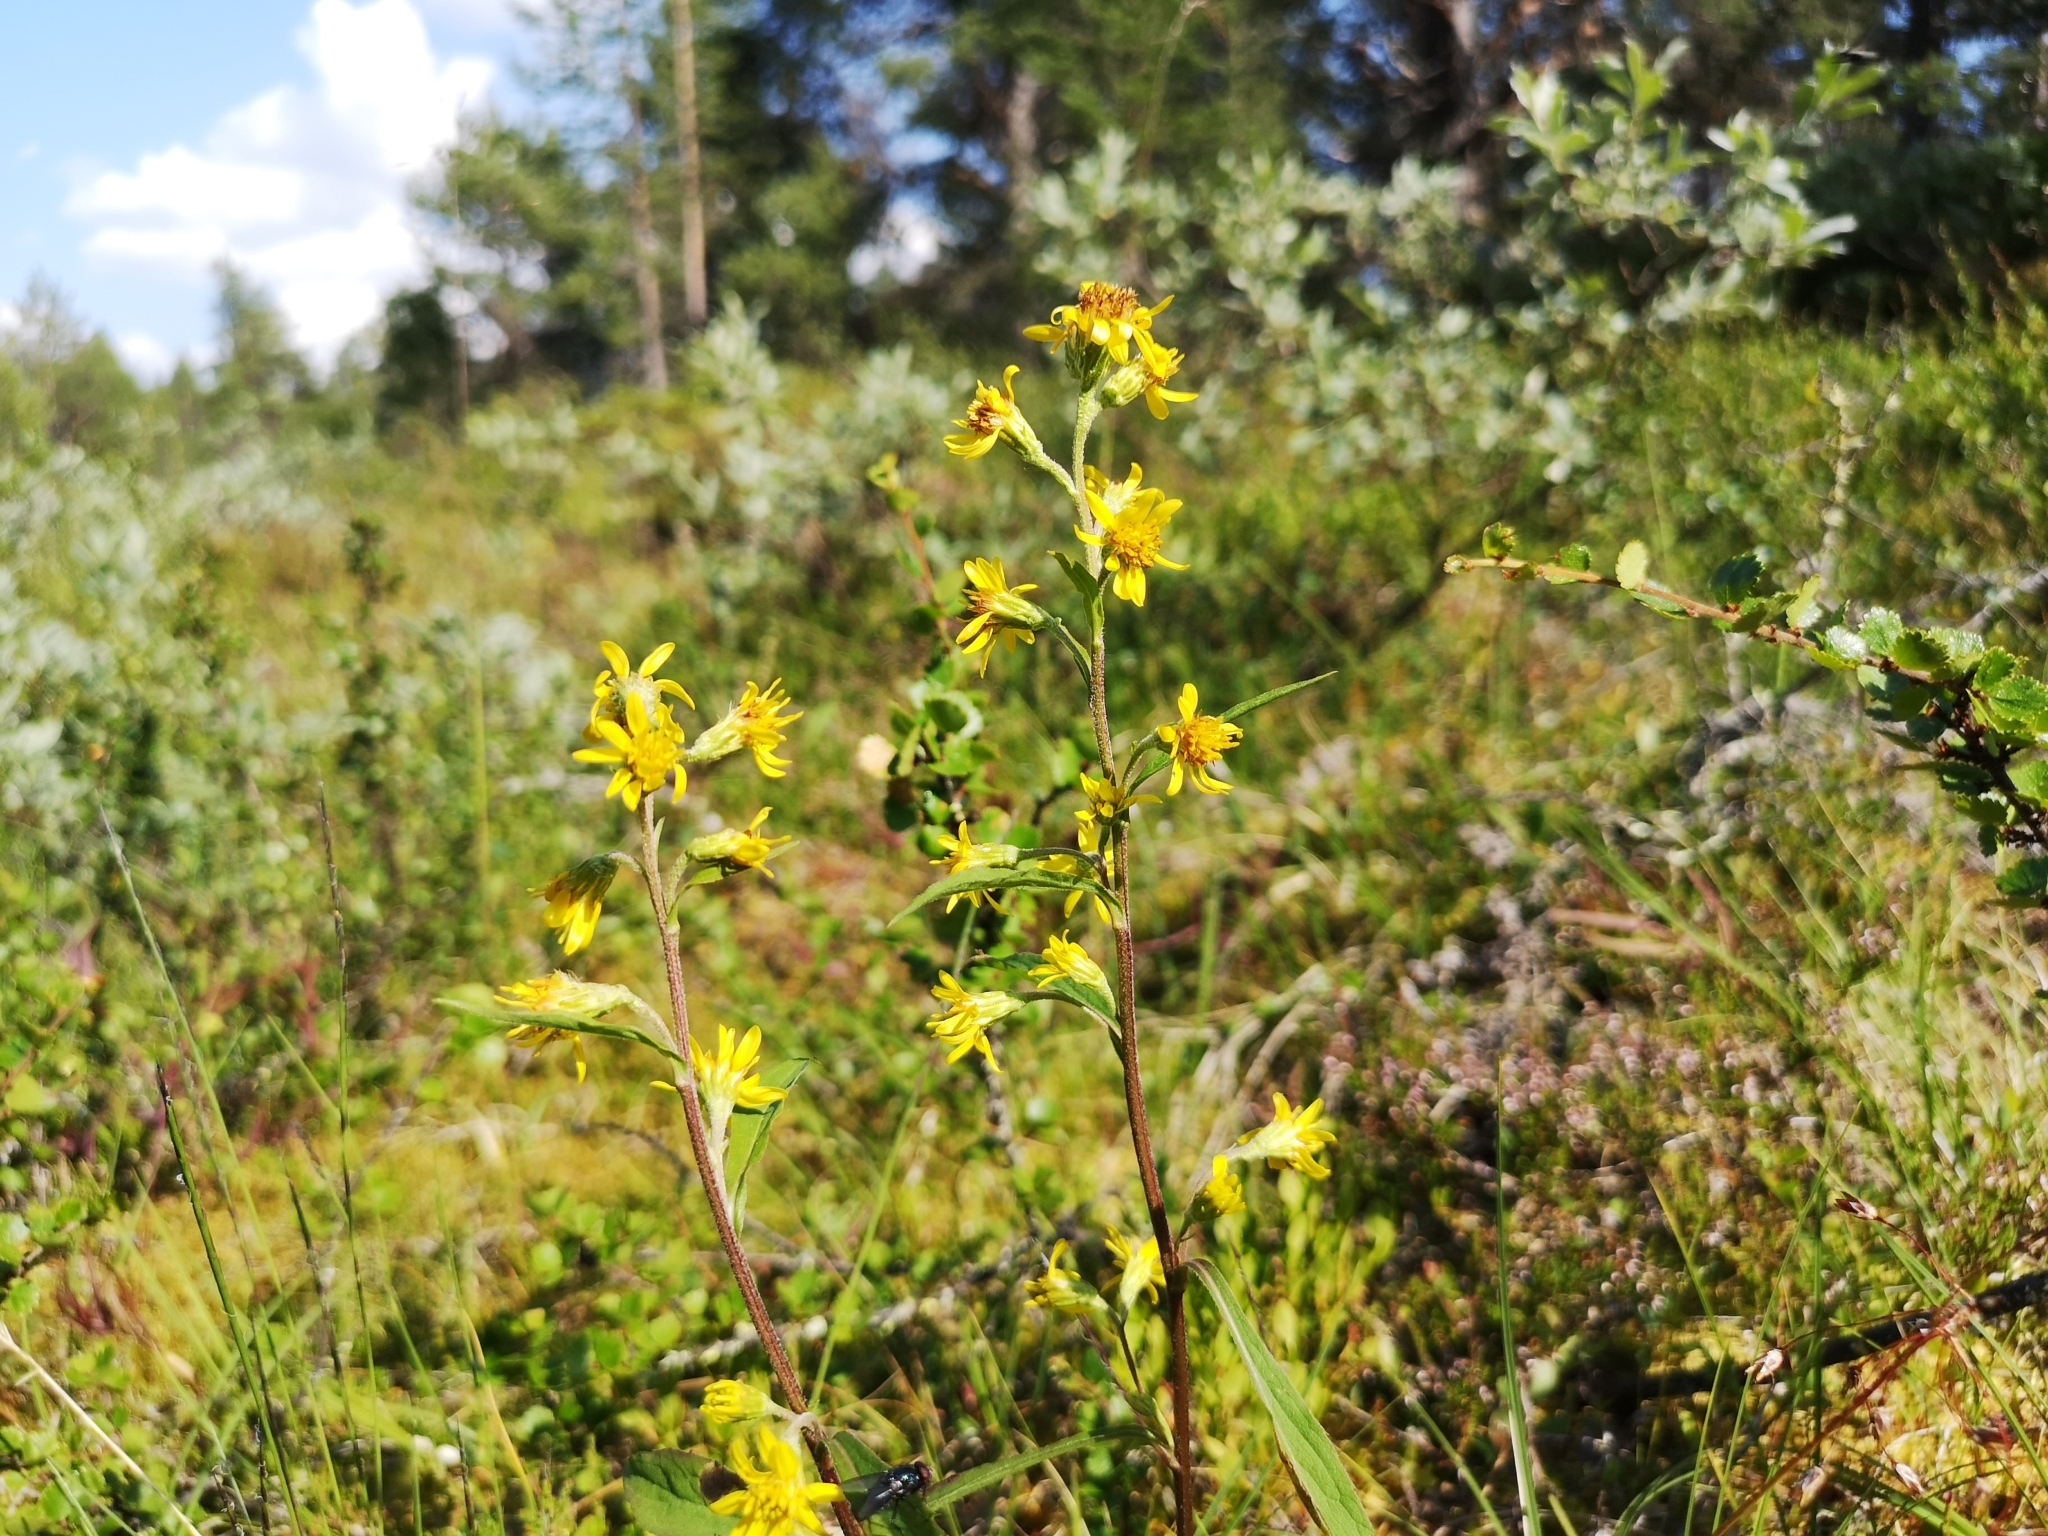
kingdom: Plantae
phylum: Tracheophyta
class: Magnoliopsida
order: Asterales
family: Asteraceae
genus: Solidago
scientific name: Solidago virgaurea
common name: Goldenrod
